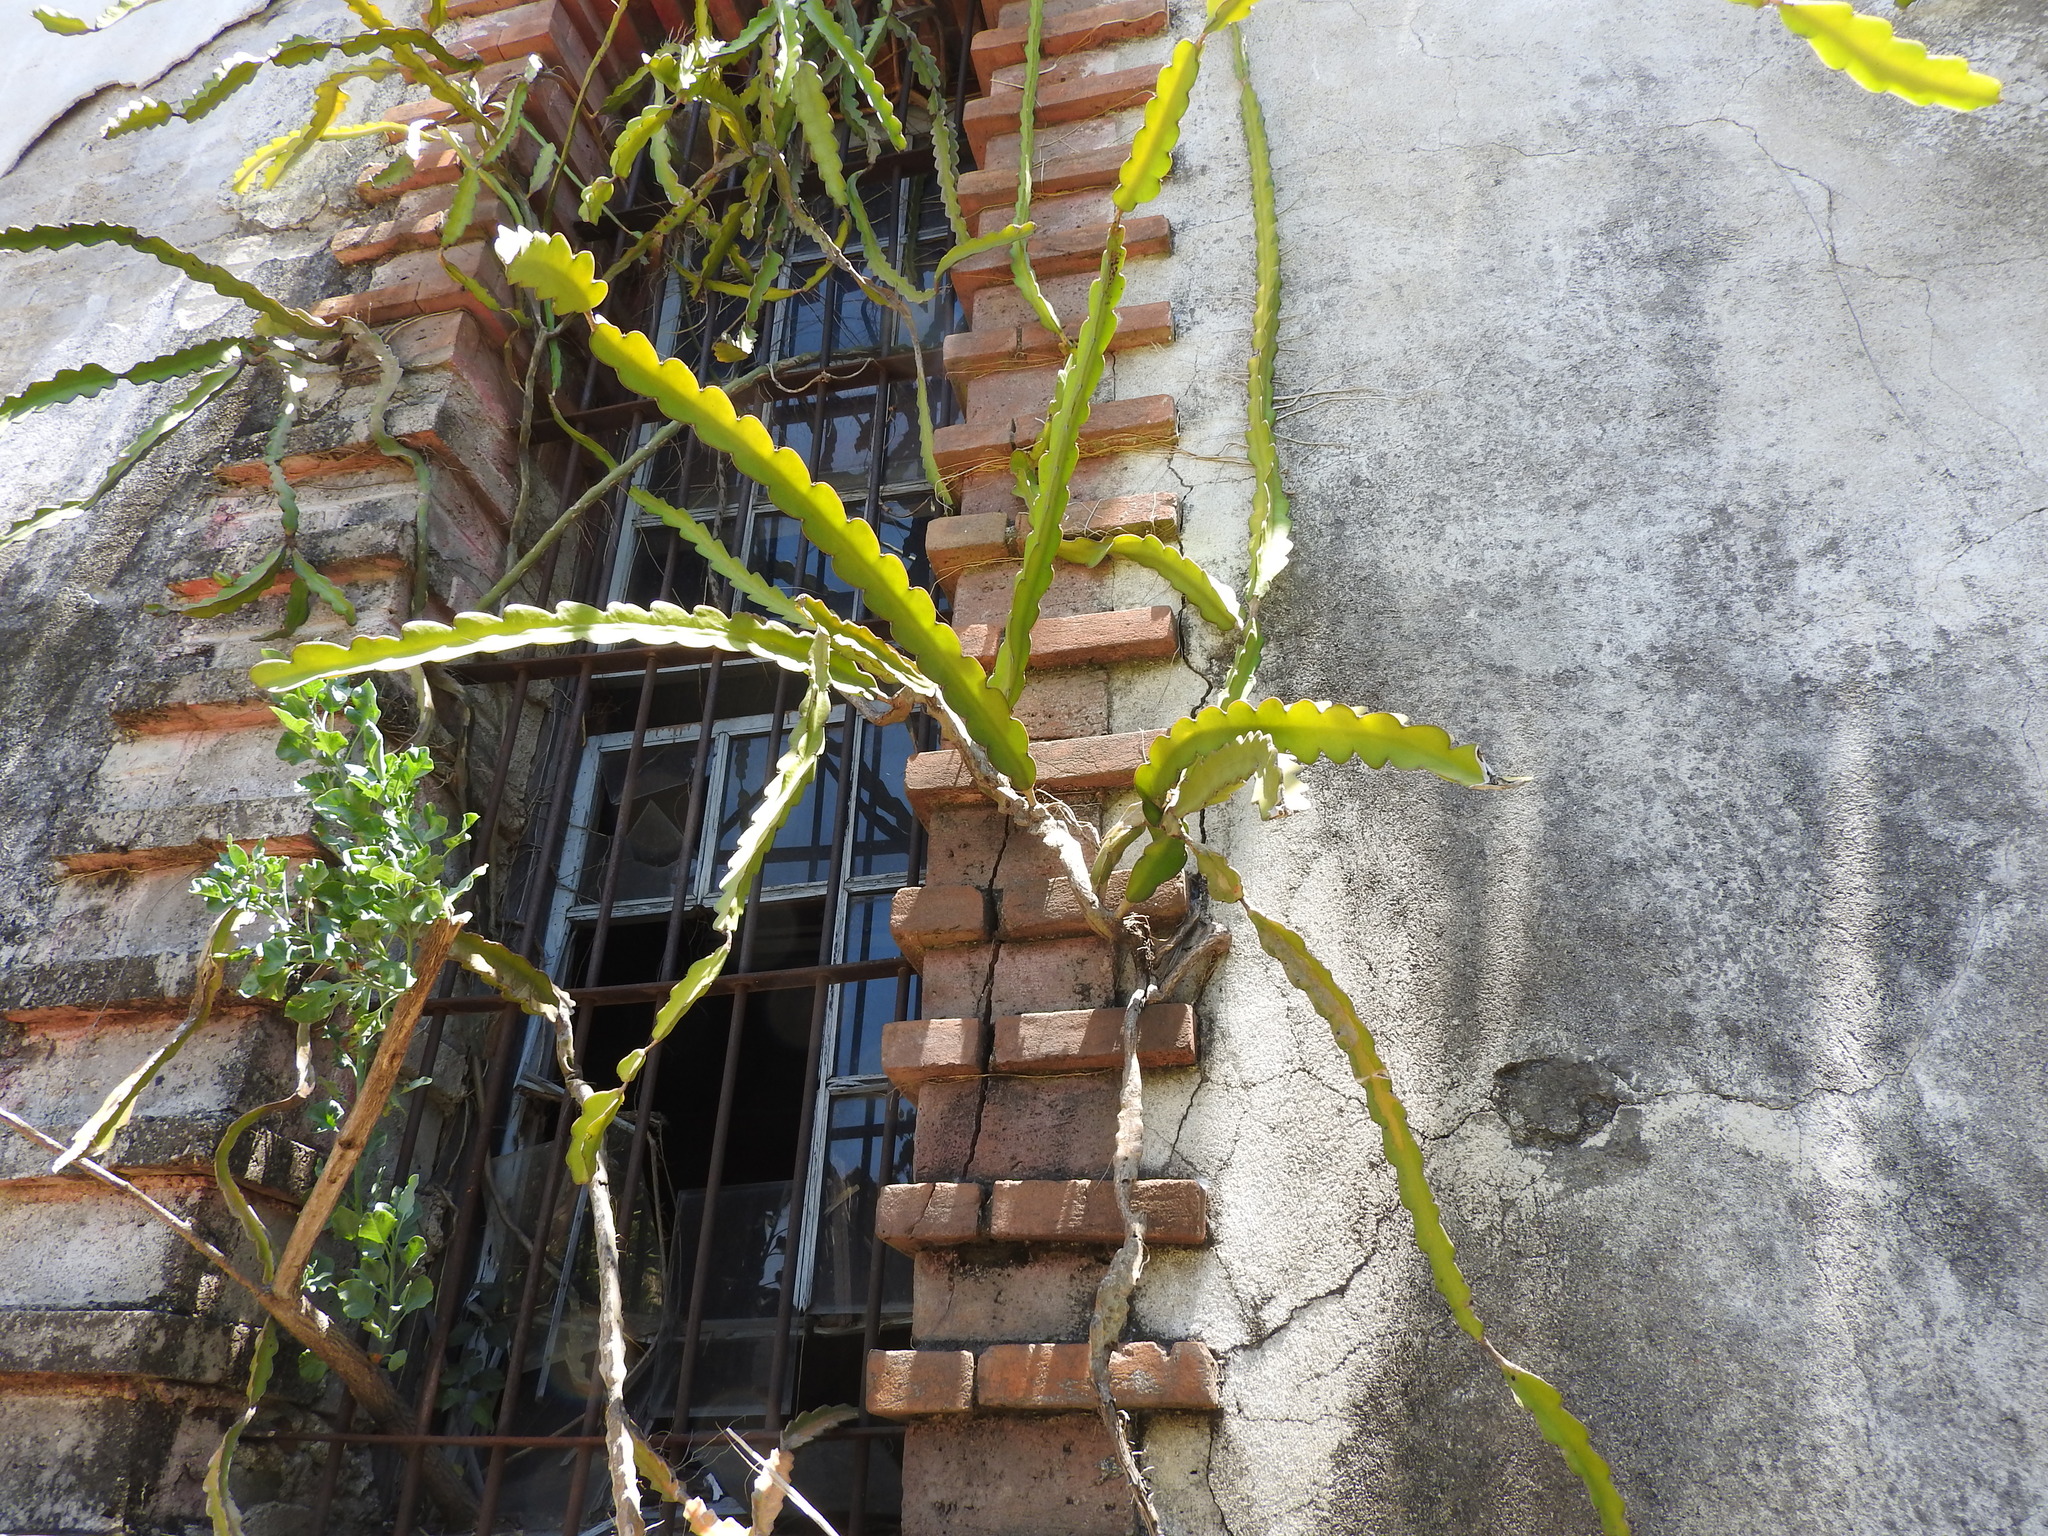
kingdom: Plantae
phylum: Tracheophyta
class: Magnoliopsida
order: Caryophyllales
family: Cactaceae
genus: Selenicereus
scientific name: Selenicereus undatus
